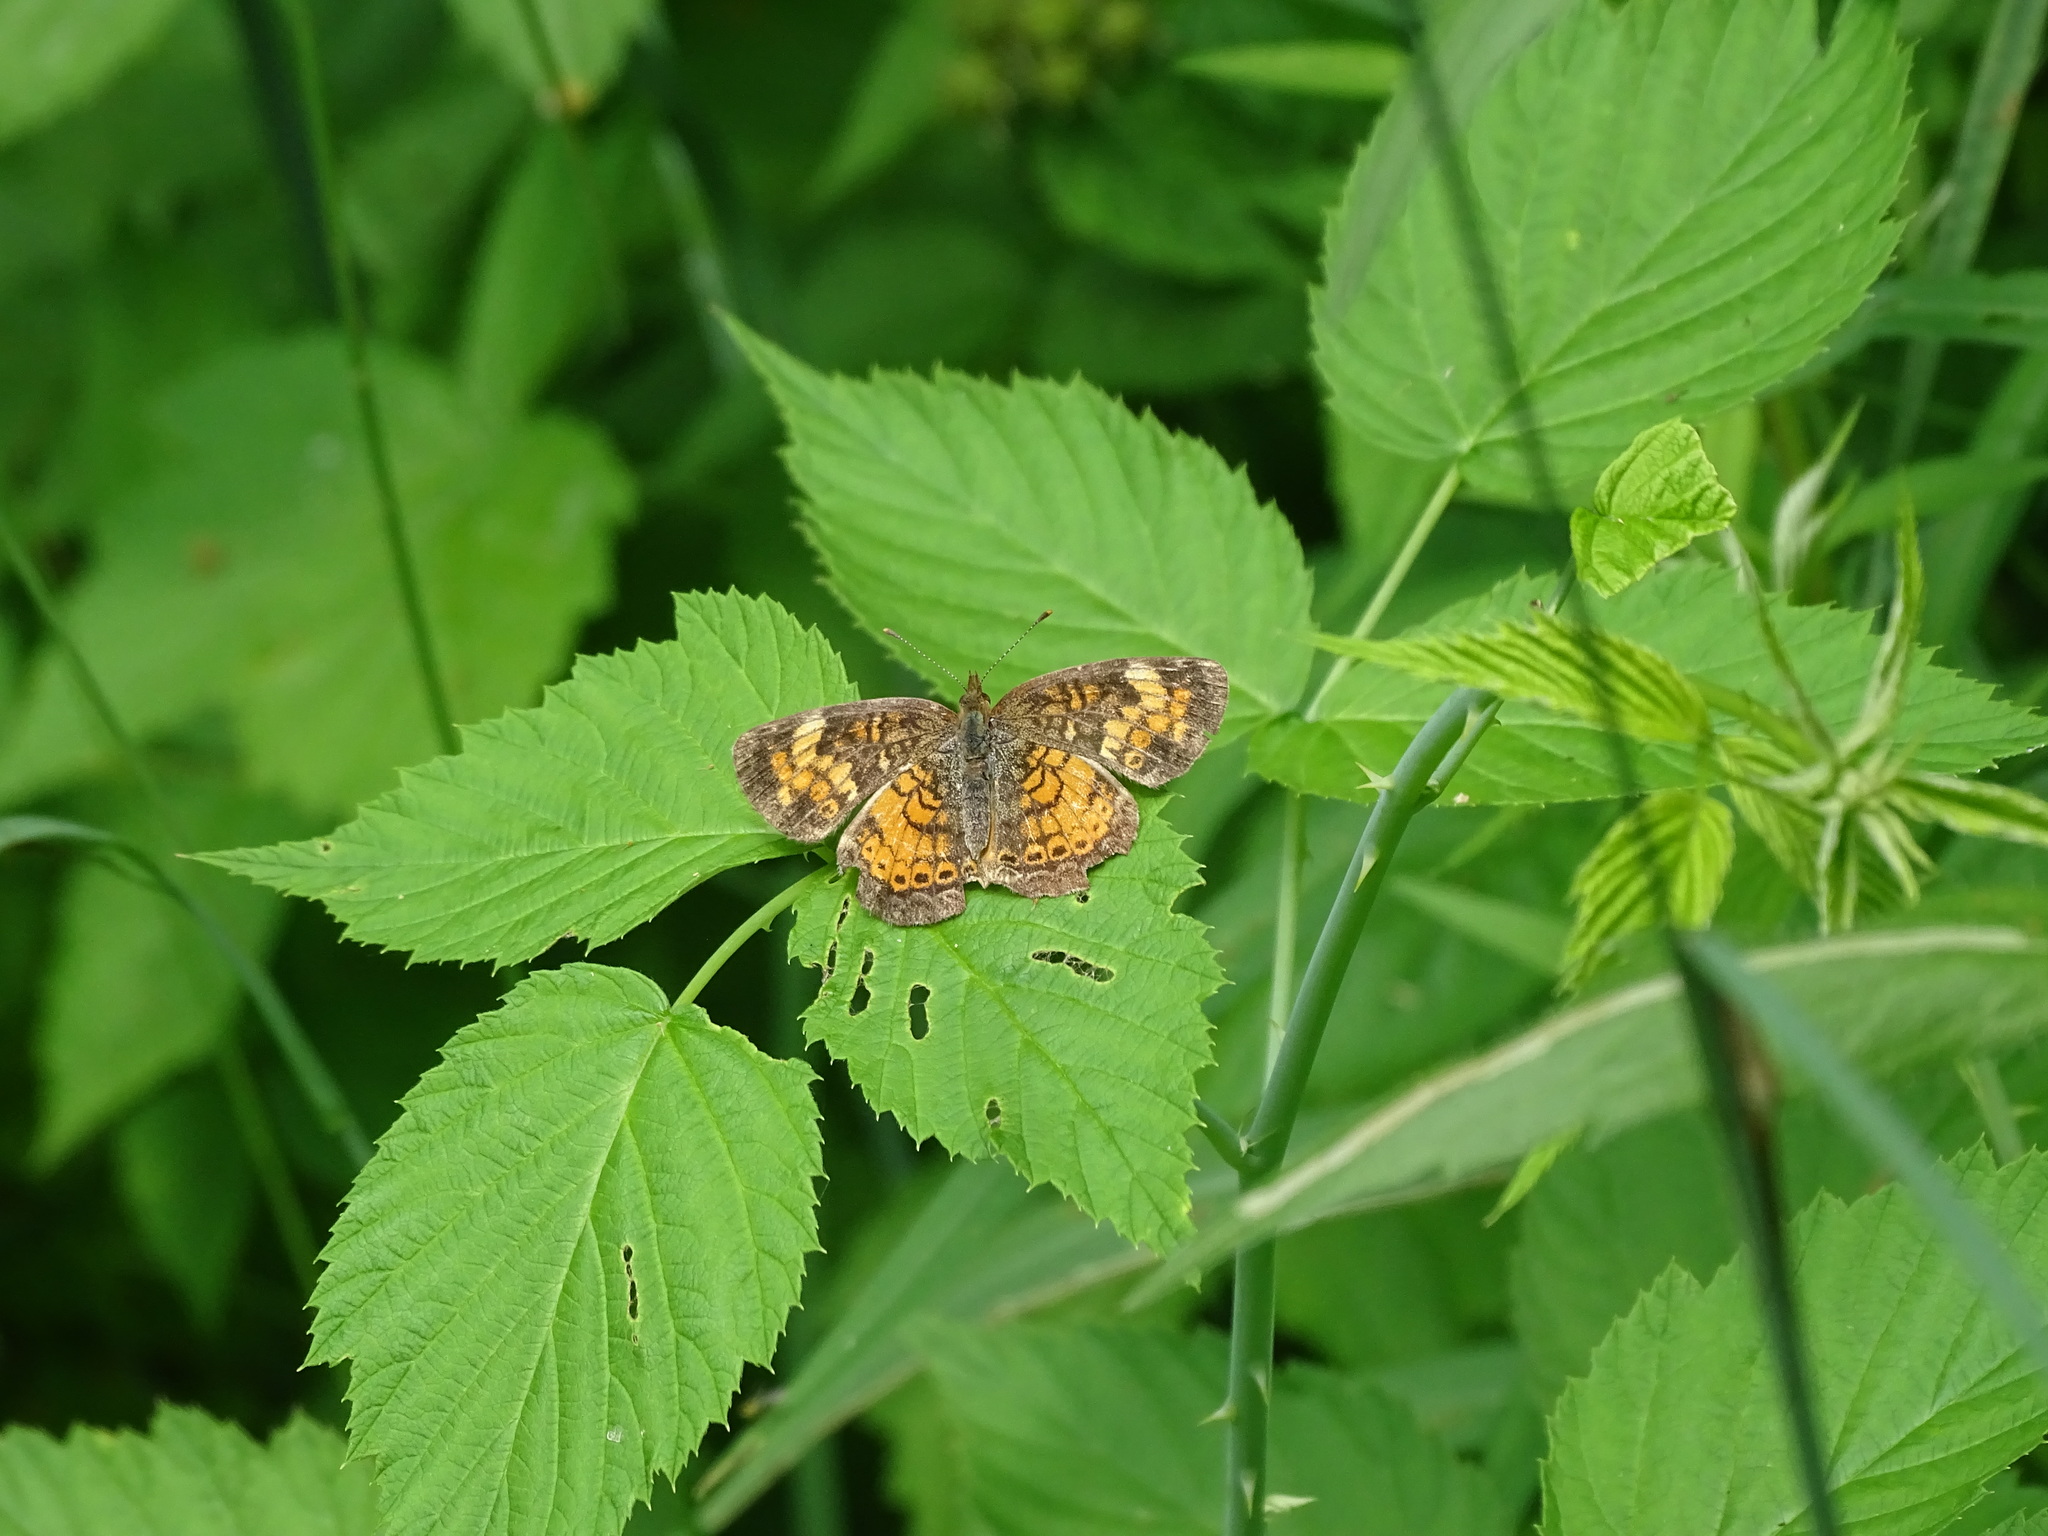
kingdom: Animalia
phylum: Arthropoda
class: Insecta
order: Lepidoptera
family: Nymphalidae
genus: Phyciodes
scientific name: Phyciodes tharos
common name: Pearl crescent
